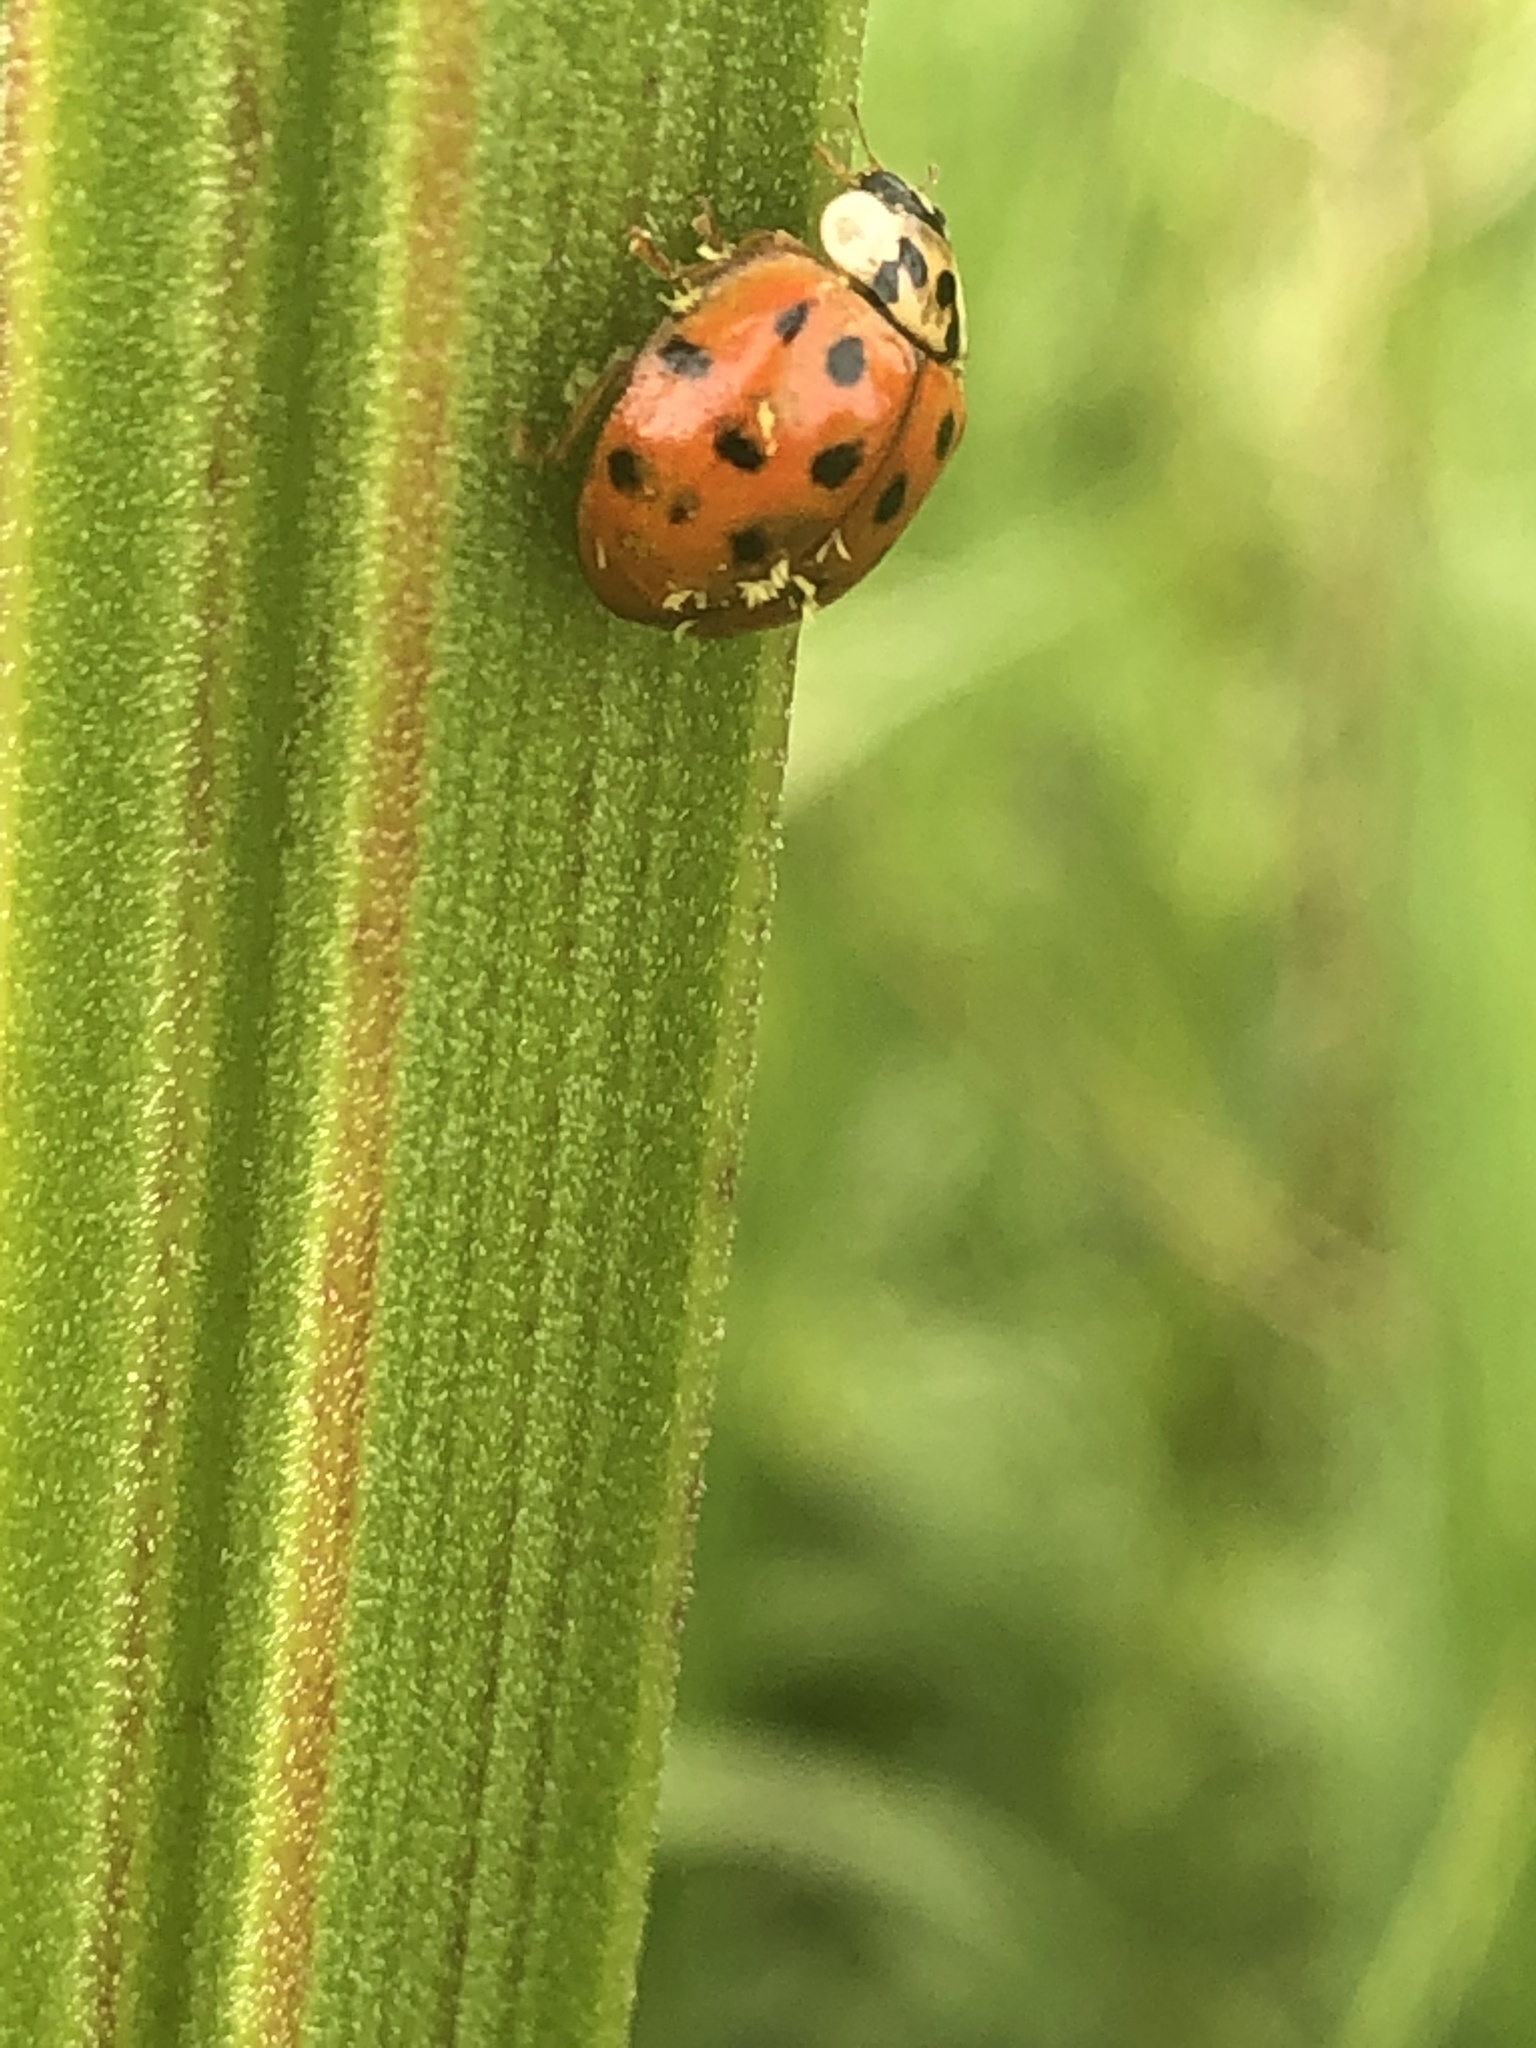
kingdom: Fungi
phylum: Ascomycota
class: Laboulbeniomycetes
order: Laboulbeniales
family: Laboulbeniaceae
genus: Hesperomyces
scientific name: Hesperomyces harmoniae
